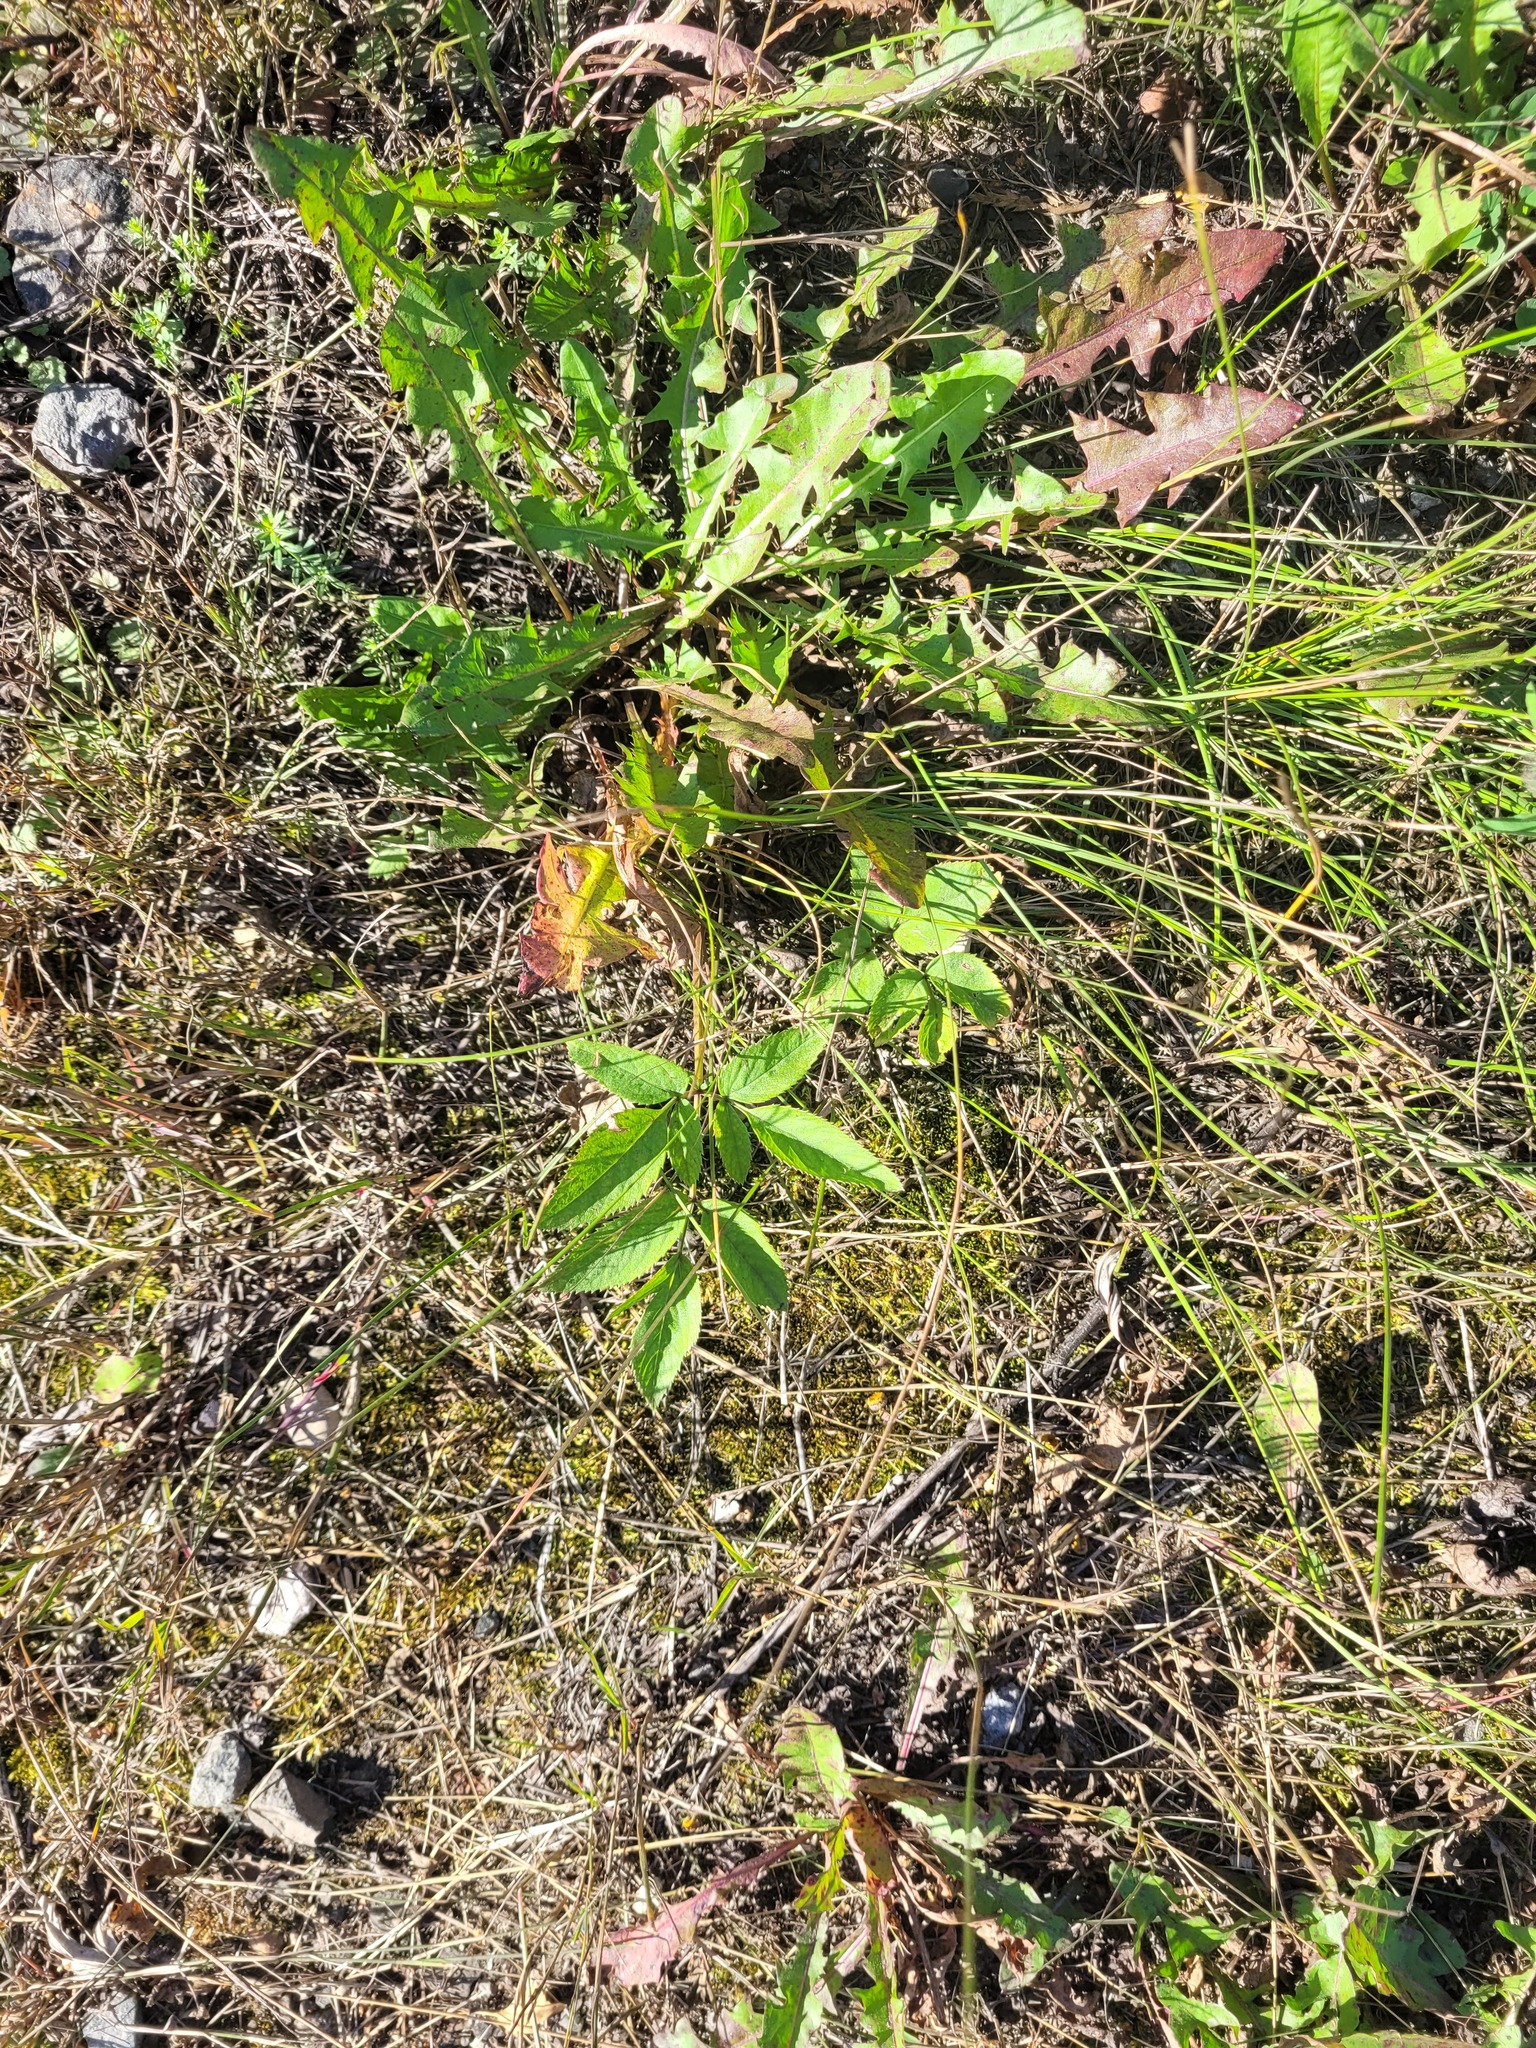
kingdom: Plantae
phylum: Tracheophyta
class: Magnoliopsida
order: Apiales
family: Apiaceae
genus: Angelica
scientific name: Angelica sylvestris
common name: Wild angelica
